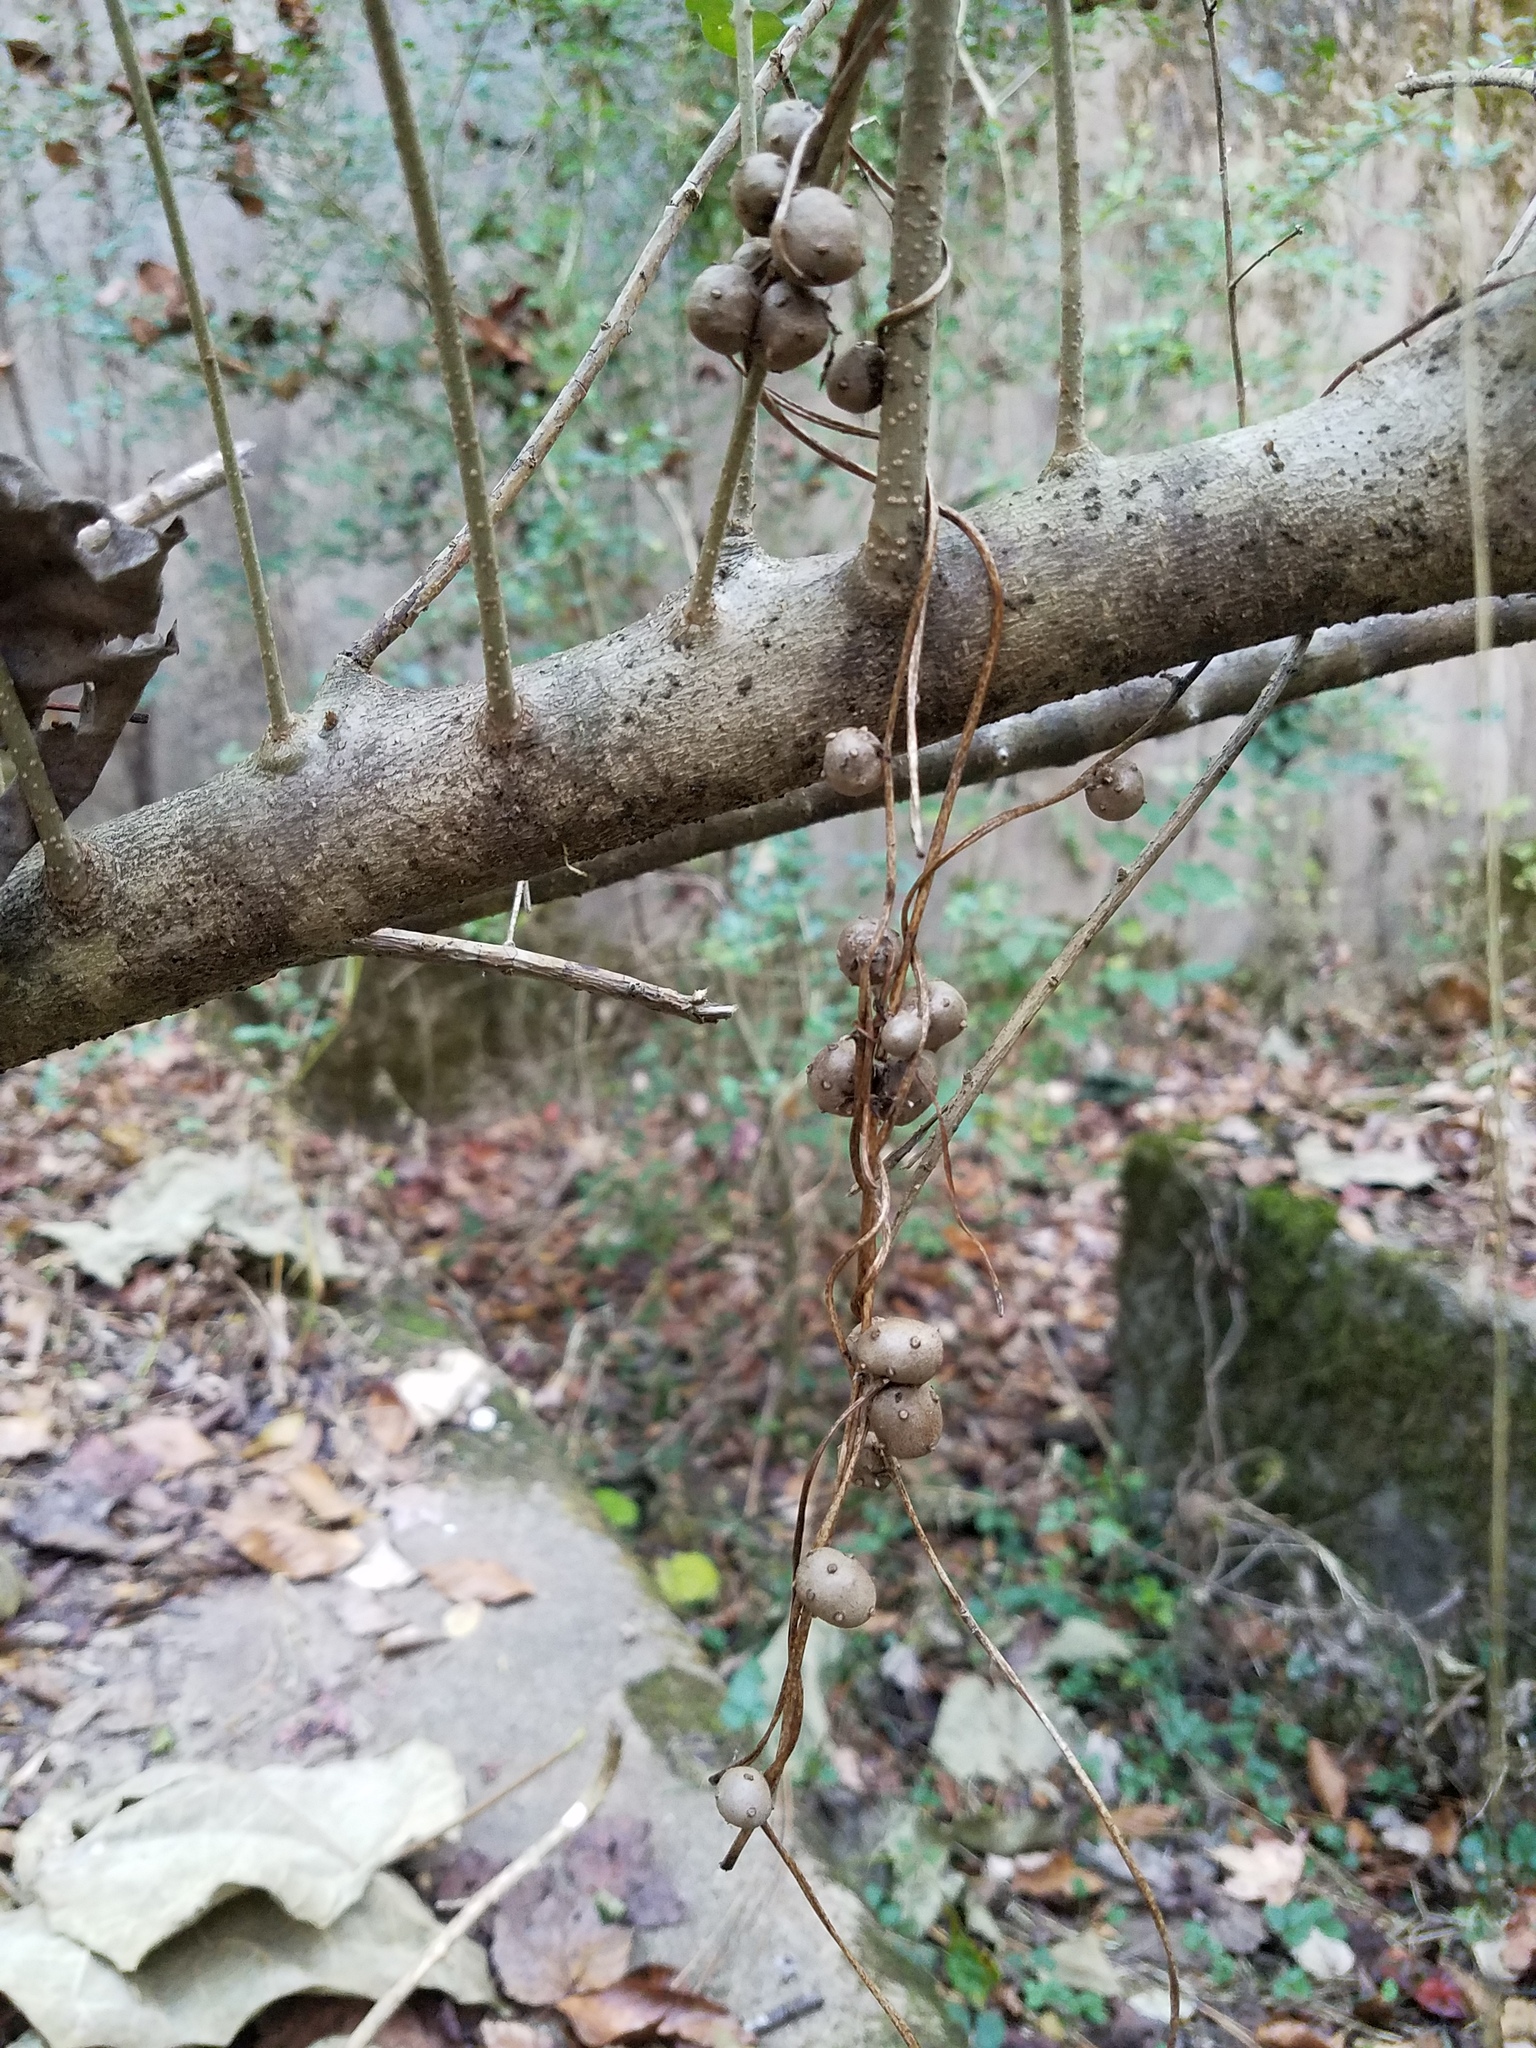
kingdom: Plantae
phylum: Tracheophyta
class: Liliopsida
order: Dioscoreales
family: Dioscoreaceae
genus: Dioscorea
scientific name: Dioscorea polystachya
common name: Chinese yam
